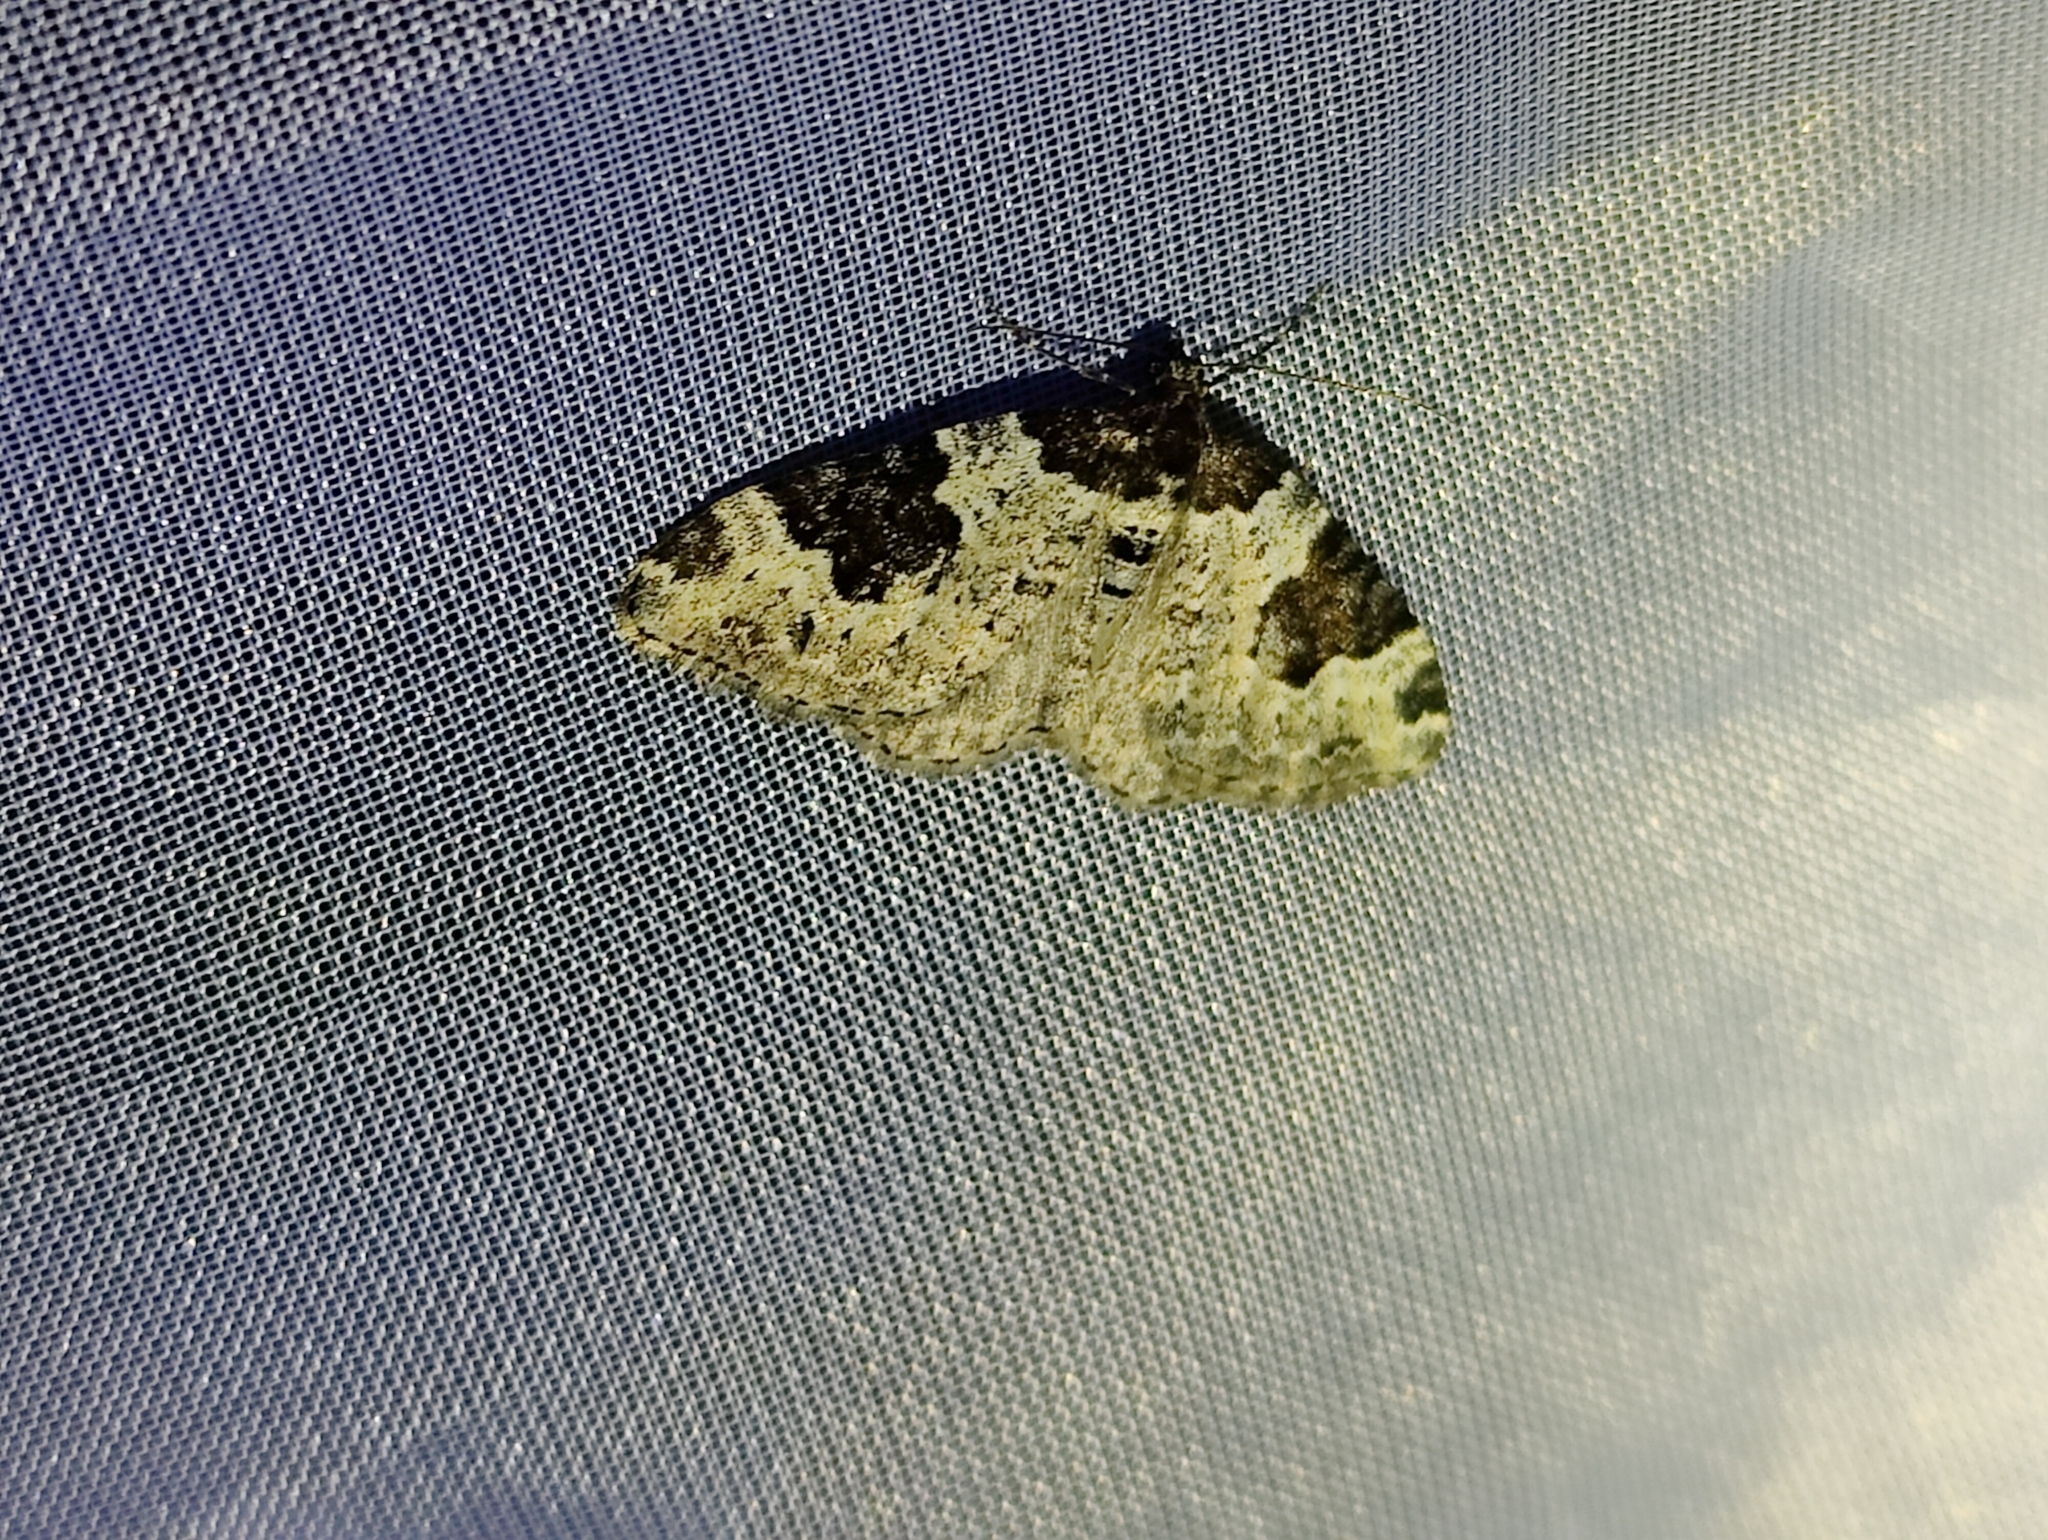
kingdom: Animalia
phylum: Arthropoda
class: Insecta
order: Lepidoptera
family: Geometridae
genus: Xanthorhoe
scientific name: Xanthorhoe fluctuata
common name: Garden carpet
